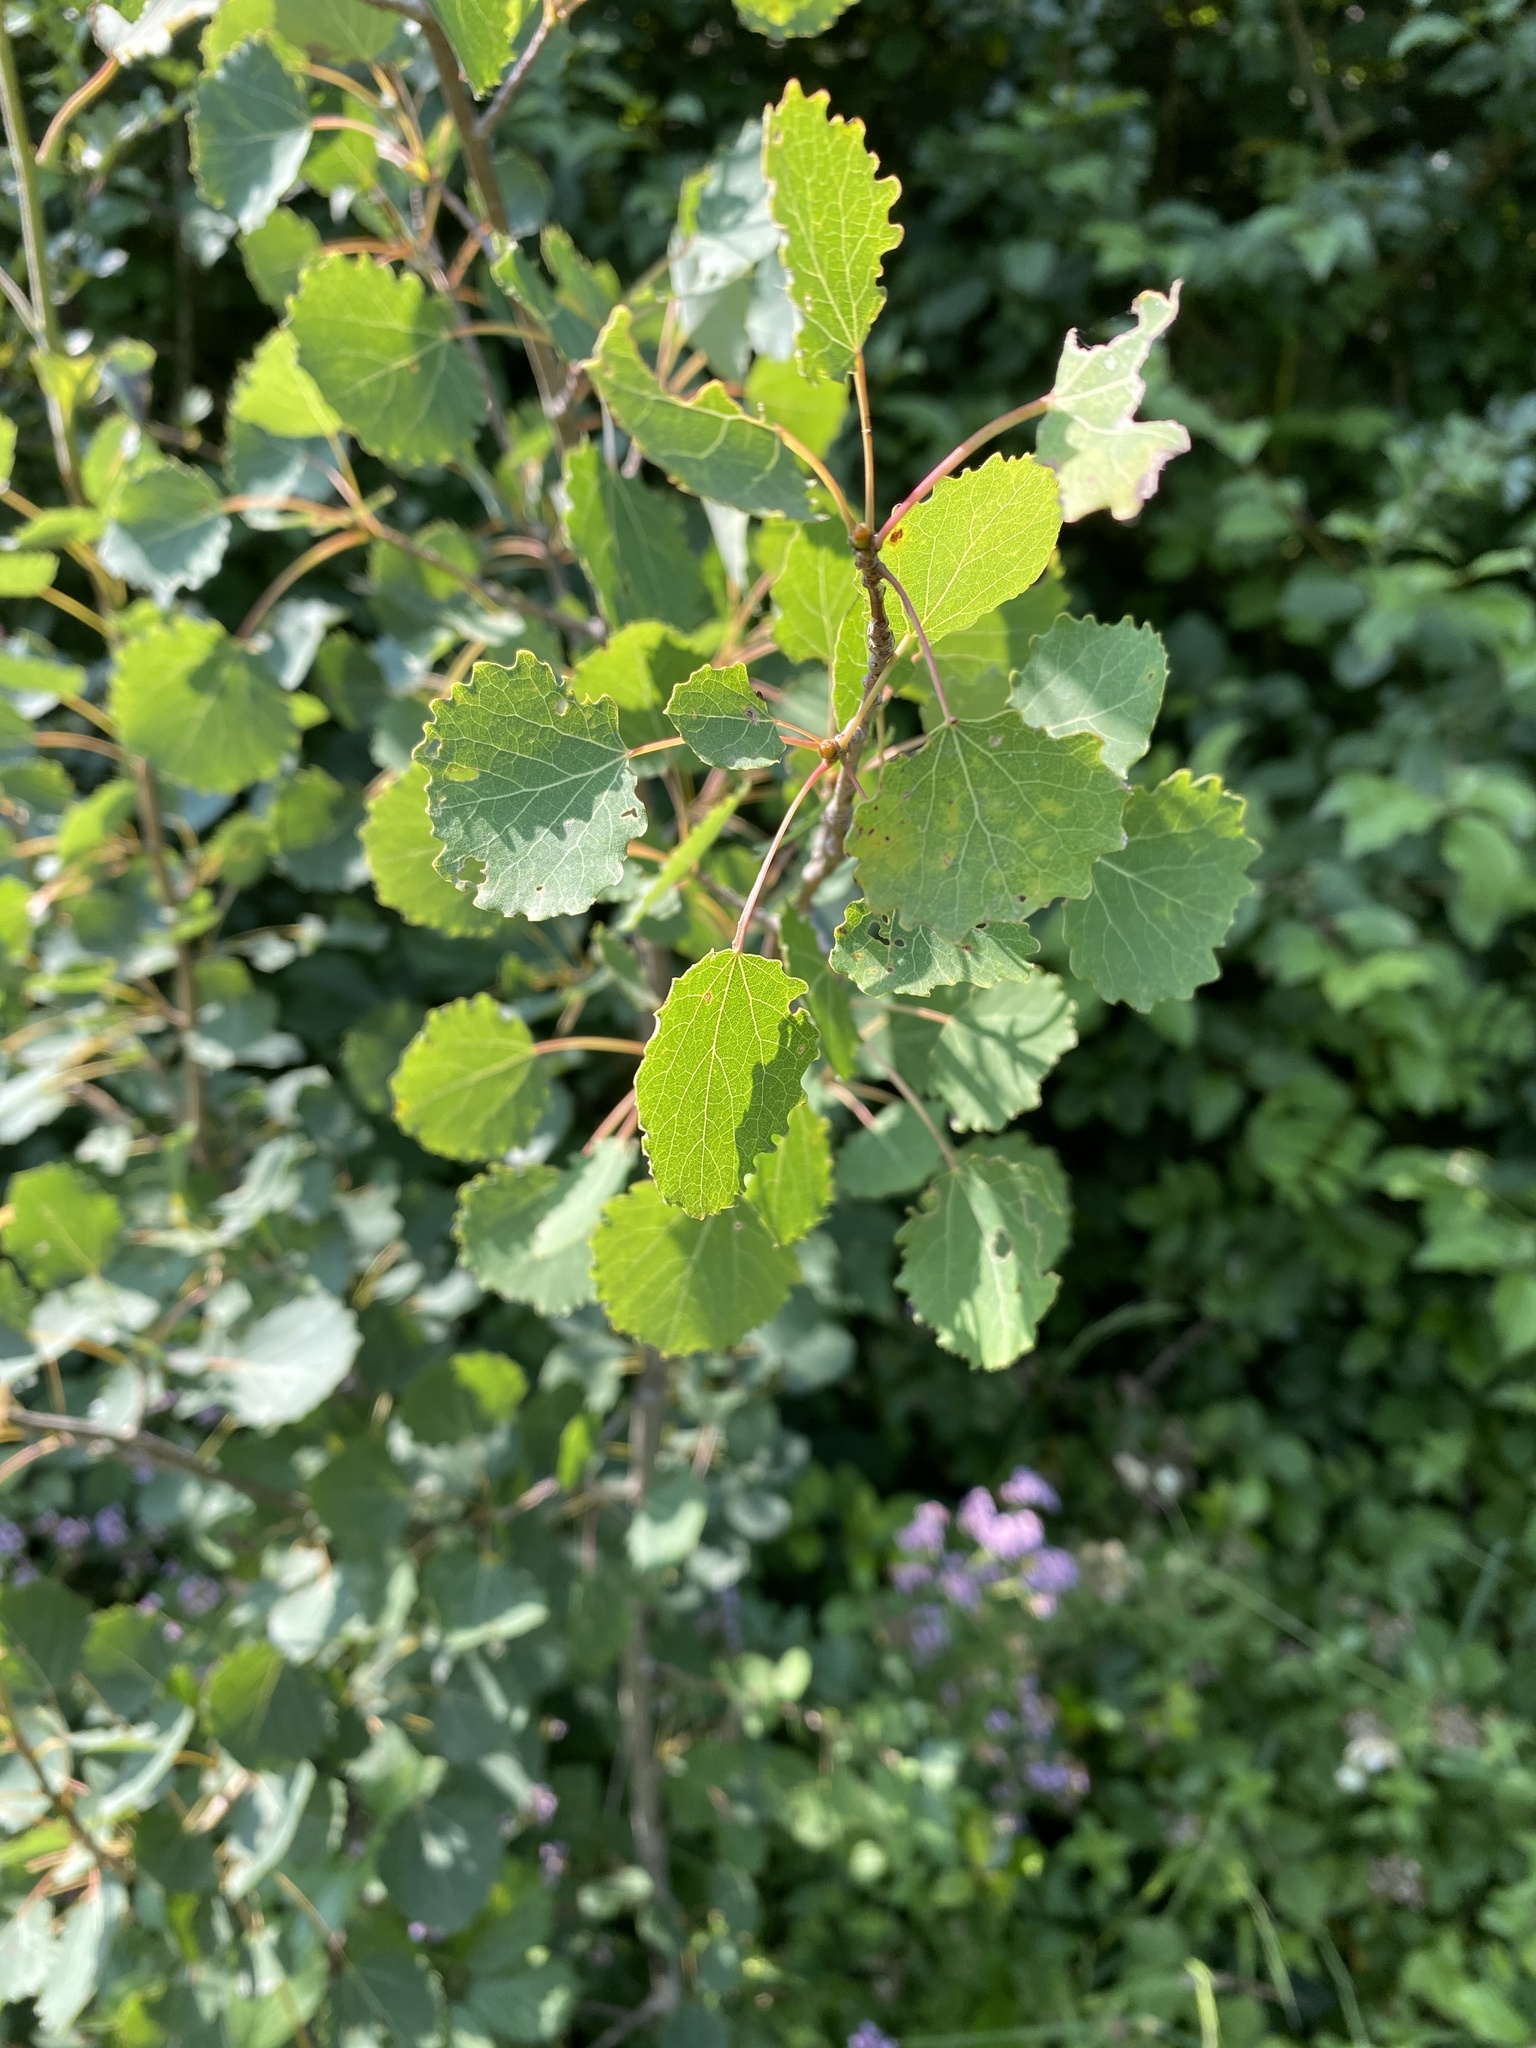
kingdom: Plantae
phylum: Tracheophyta
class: Magnoliopsida
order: Malpighiales
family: Salicaceae
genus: Populus
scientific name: Populus tremula
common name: European aspen
